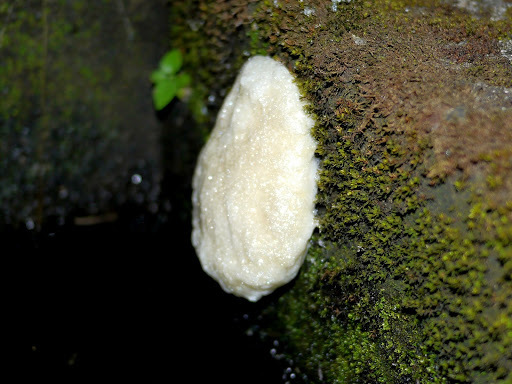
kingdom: Animalia
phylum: Chordata
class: Amphibia
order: Anura
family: Rhacophoridae
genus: Chiromantis
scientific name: Chiromantis rufescens
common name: African foam-nest treefrog
